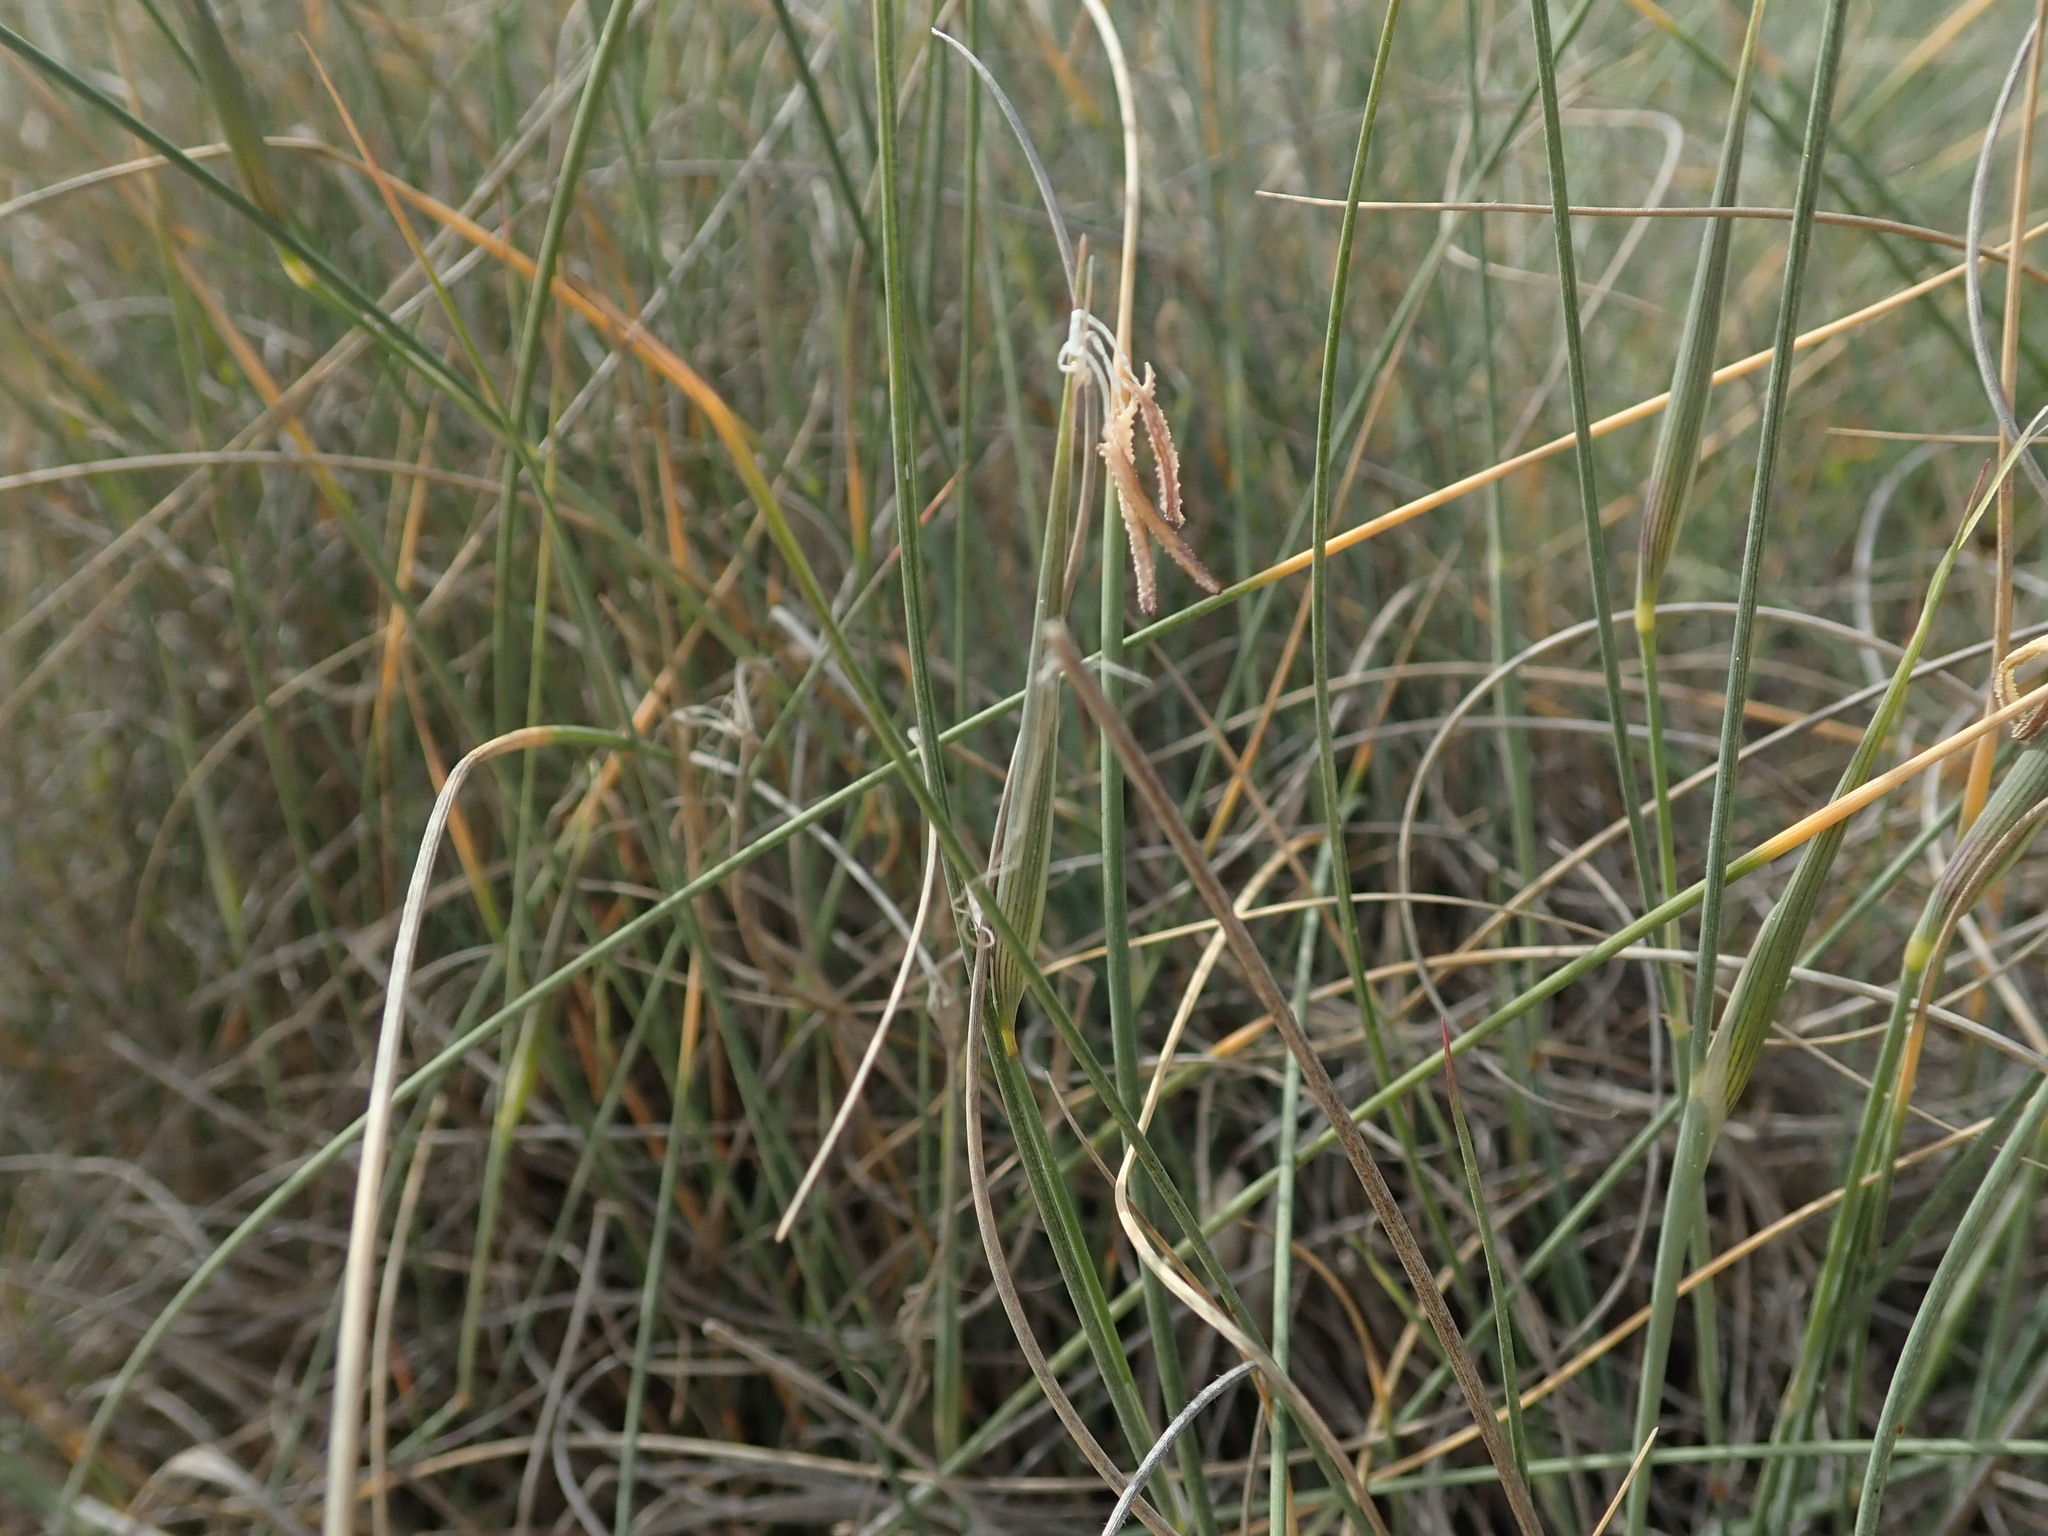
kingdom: Plantae
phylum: Tracheophyta
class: Liliopsida
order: Poales
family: Poaceae
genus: Lygeum
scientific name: Lygeum spartum
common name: Albardine
